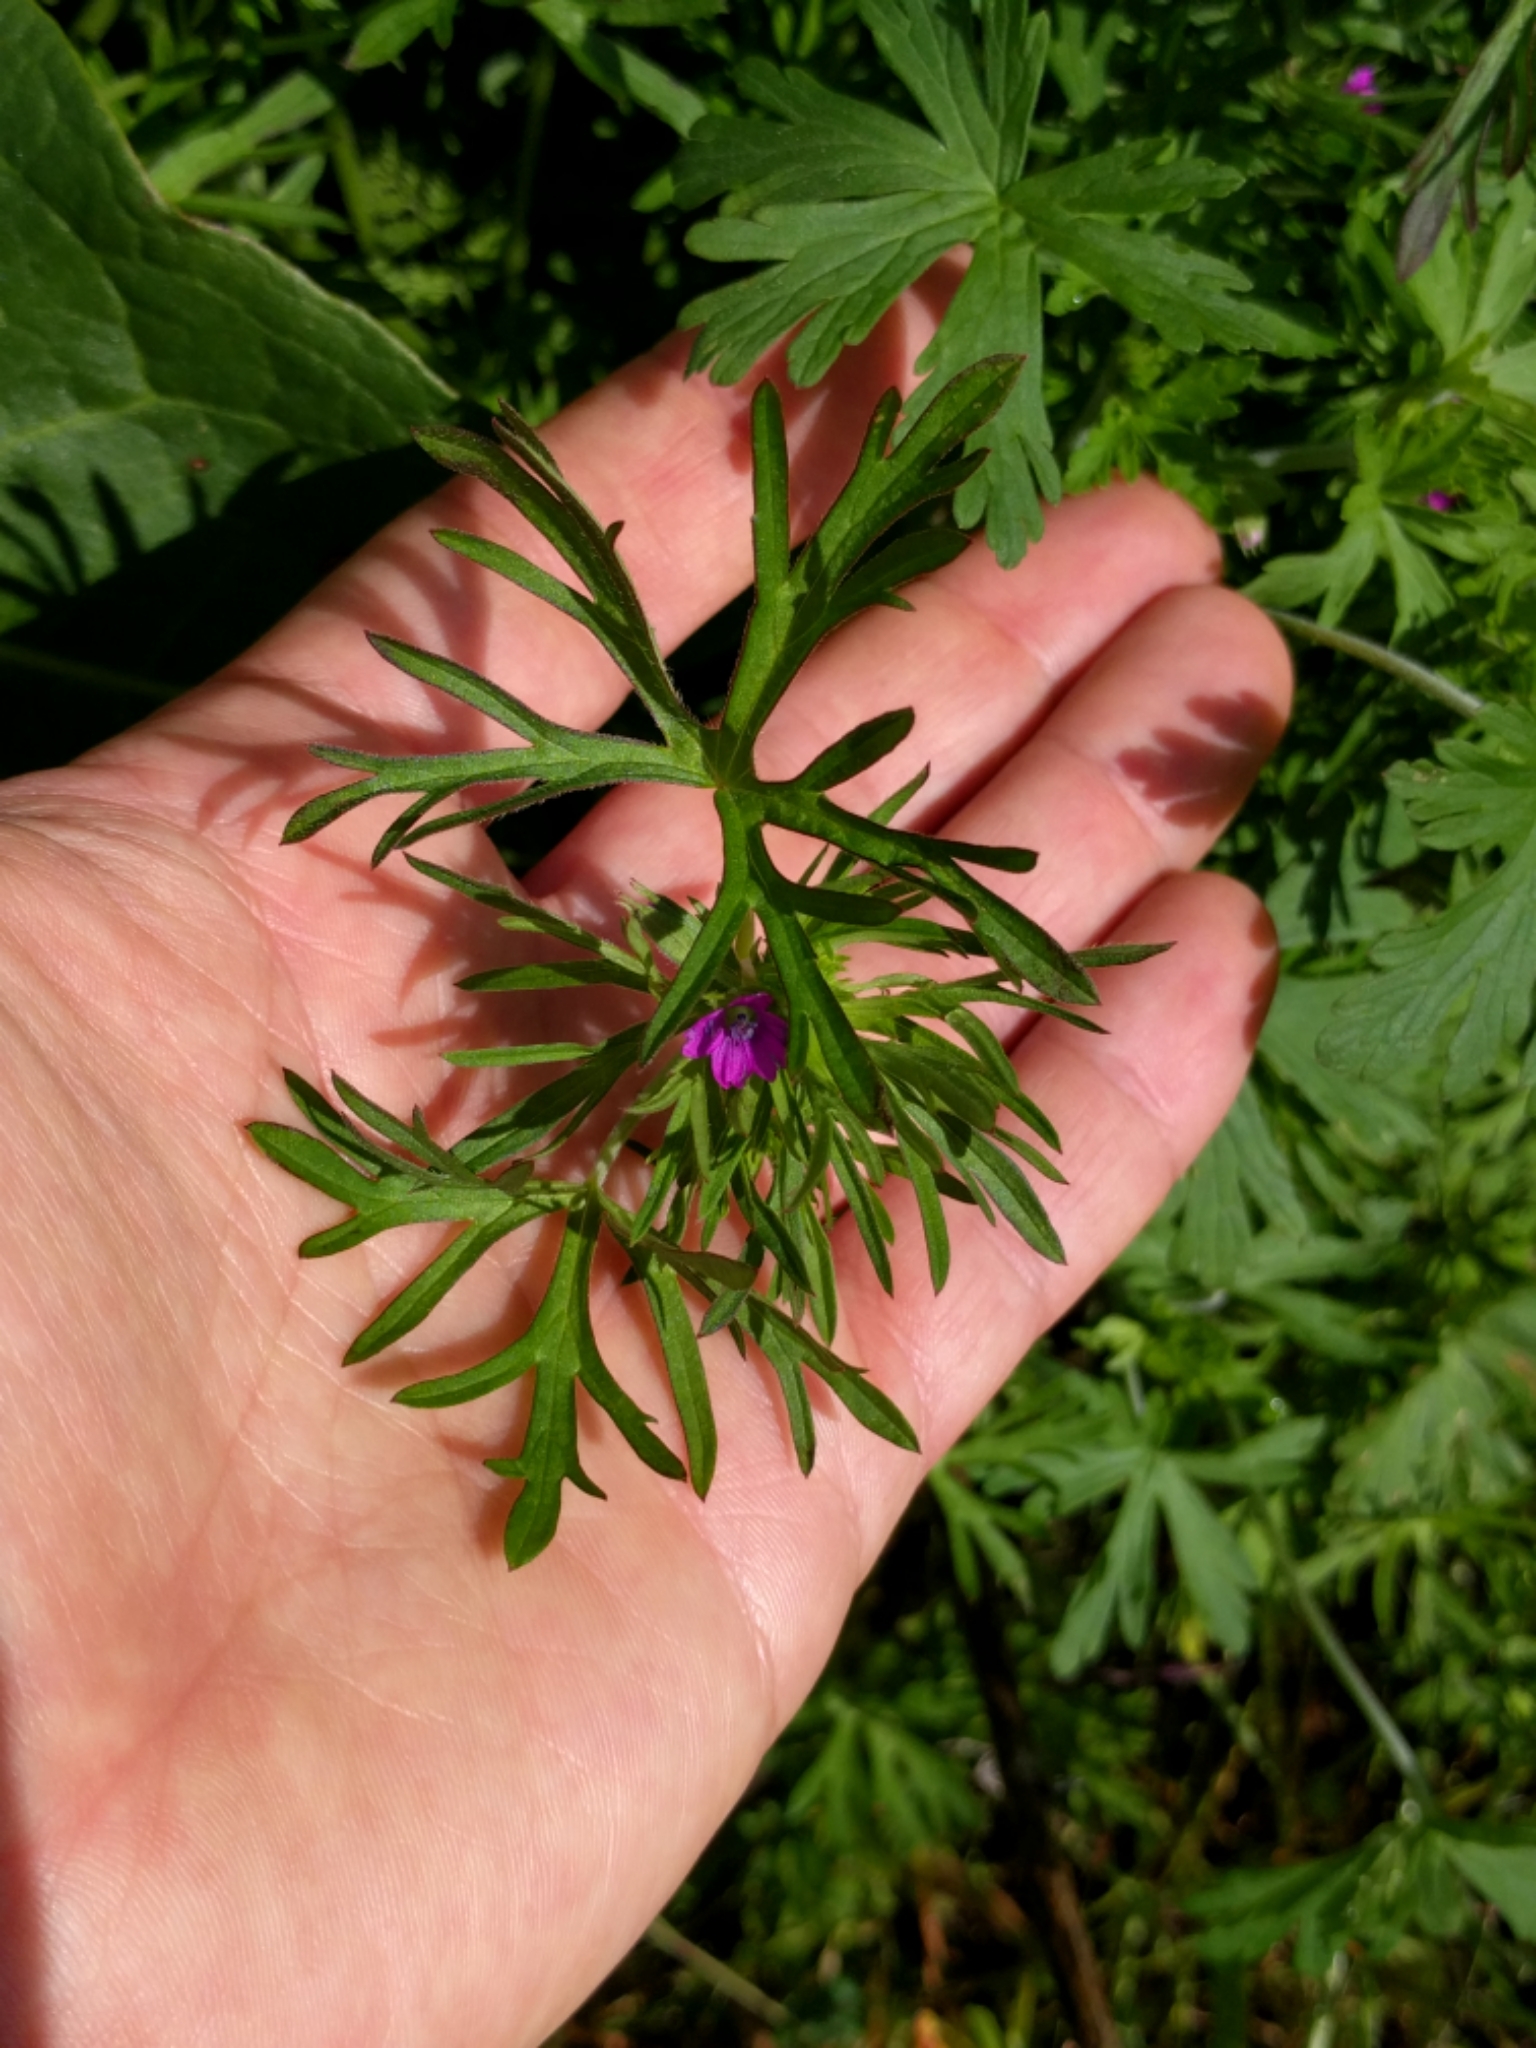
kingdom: Plantae
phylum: Tracheophyta
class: Magnoliopsida
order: Geraniales
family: Geraniaceae
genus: Geranium
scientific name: Geranium dissectum
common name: Cut-leaved crane's-bill
